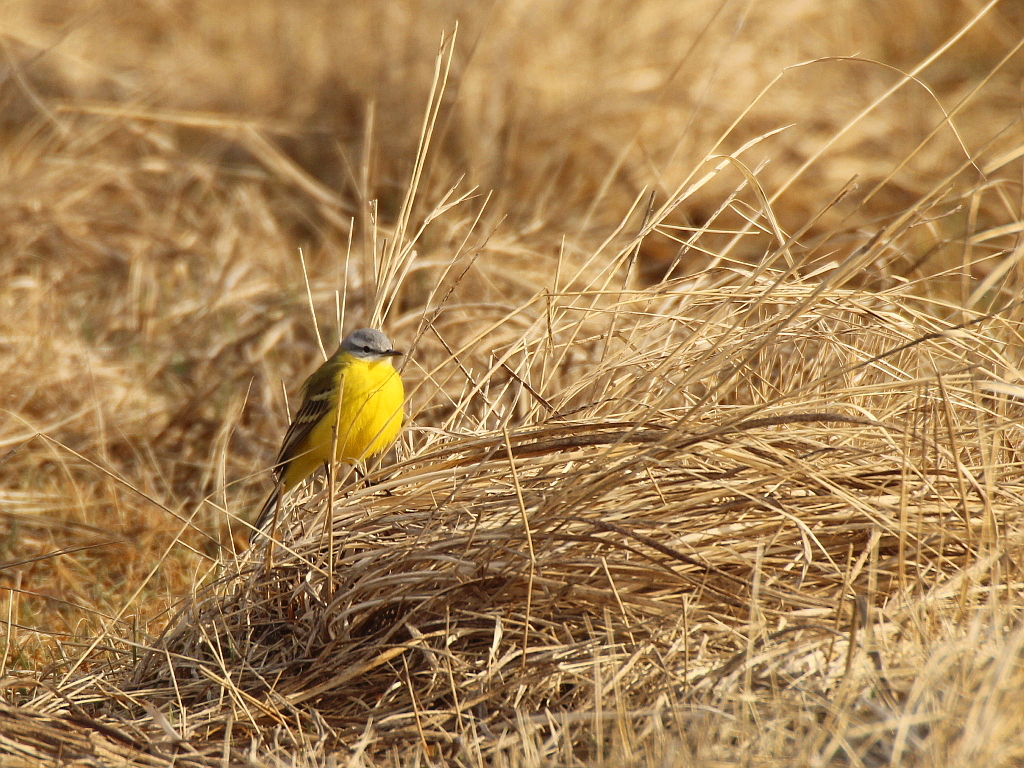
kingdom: Animalia
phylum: Chordata
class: Aves
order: Passeriformes
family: Motacillidae
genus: Motacilla
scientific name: Motacilla flava
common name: Western yellow wagtail
